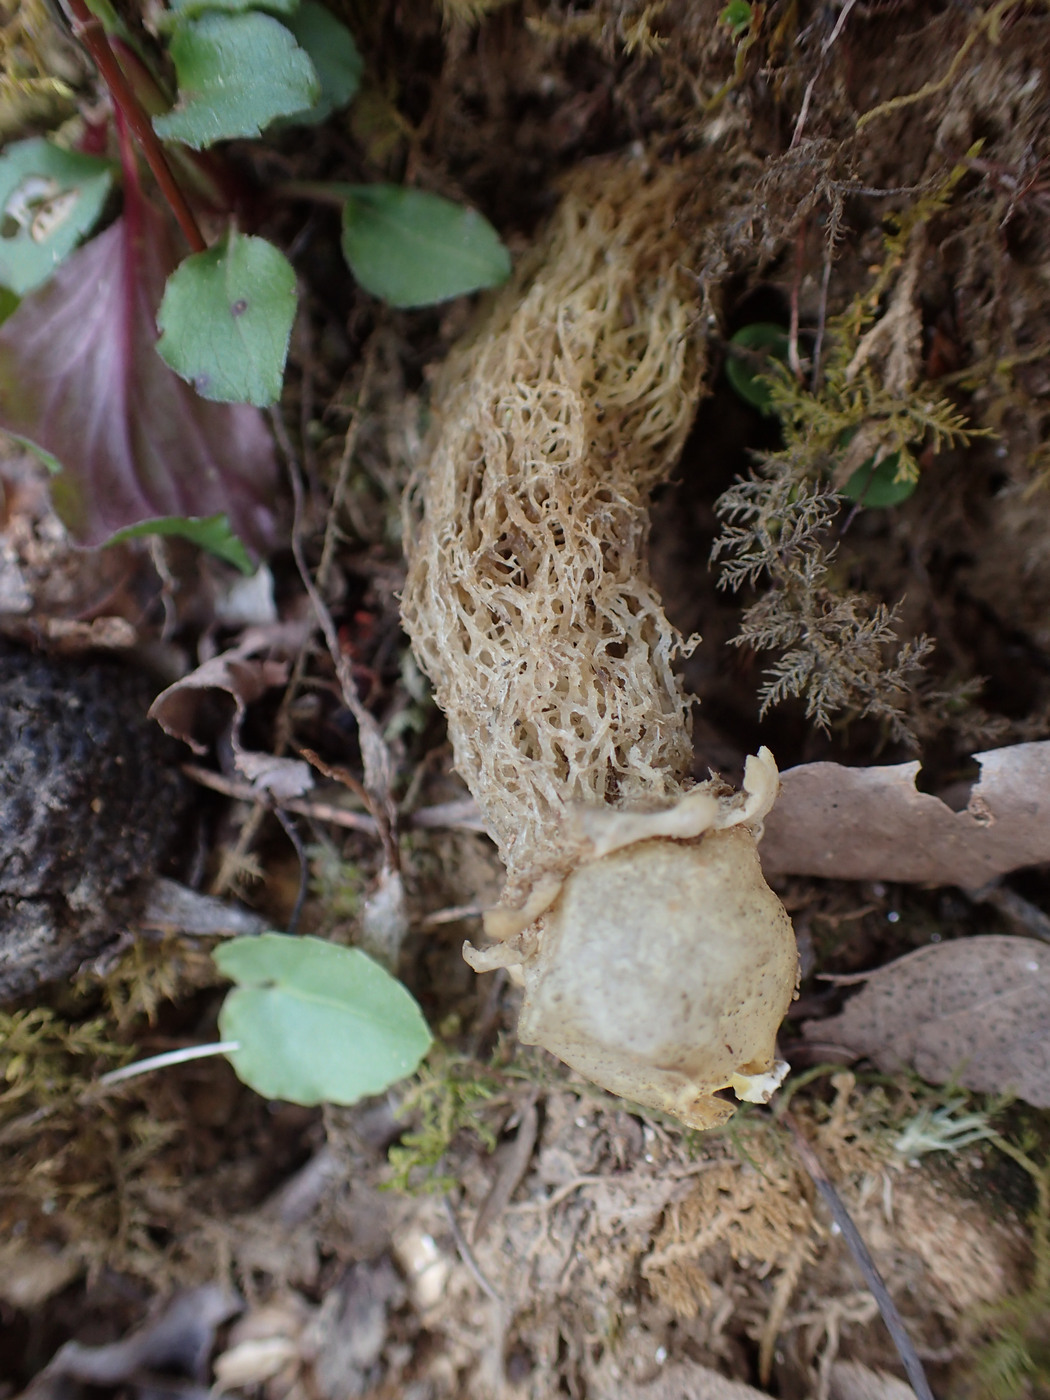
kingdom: Fungi
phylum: Basidiomycota
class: Agaricomycetes
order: Boletales
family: Calostomataceae
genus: Calostoma
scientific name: Calostoma lutescens
